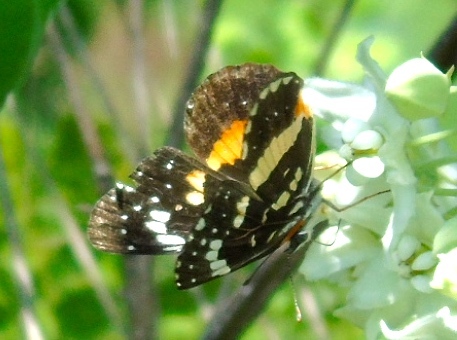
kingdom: Animalia
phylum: Arthropoda
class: Insecta
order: Lepidoptera
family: Nymphalidae
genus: Chlosyne
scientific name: Chlosyne lacinia
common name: Bordered patch
